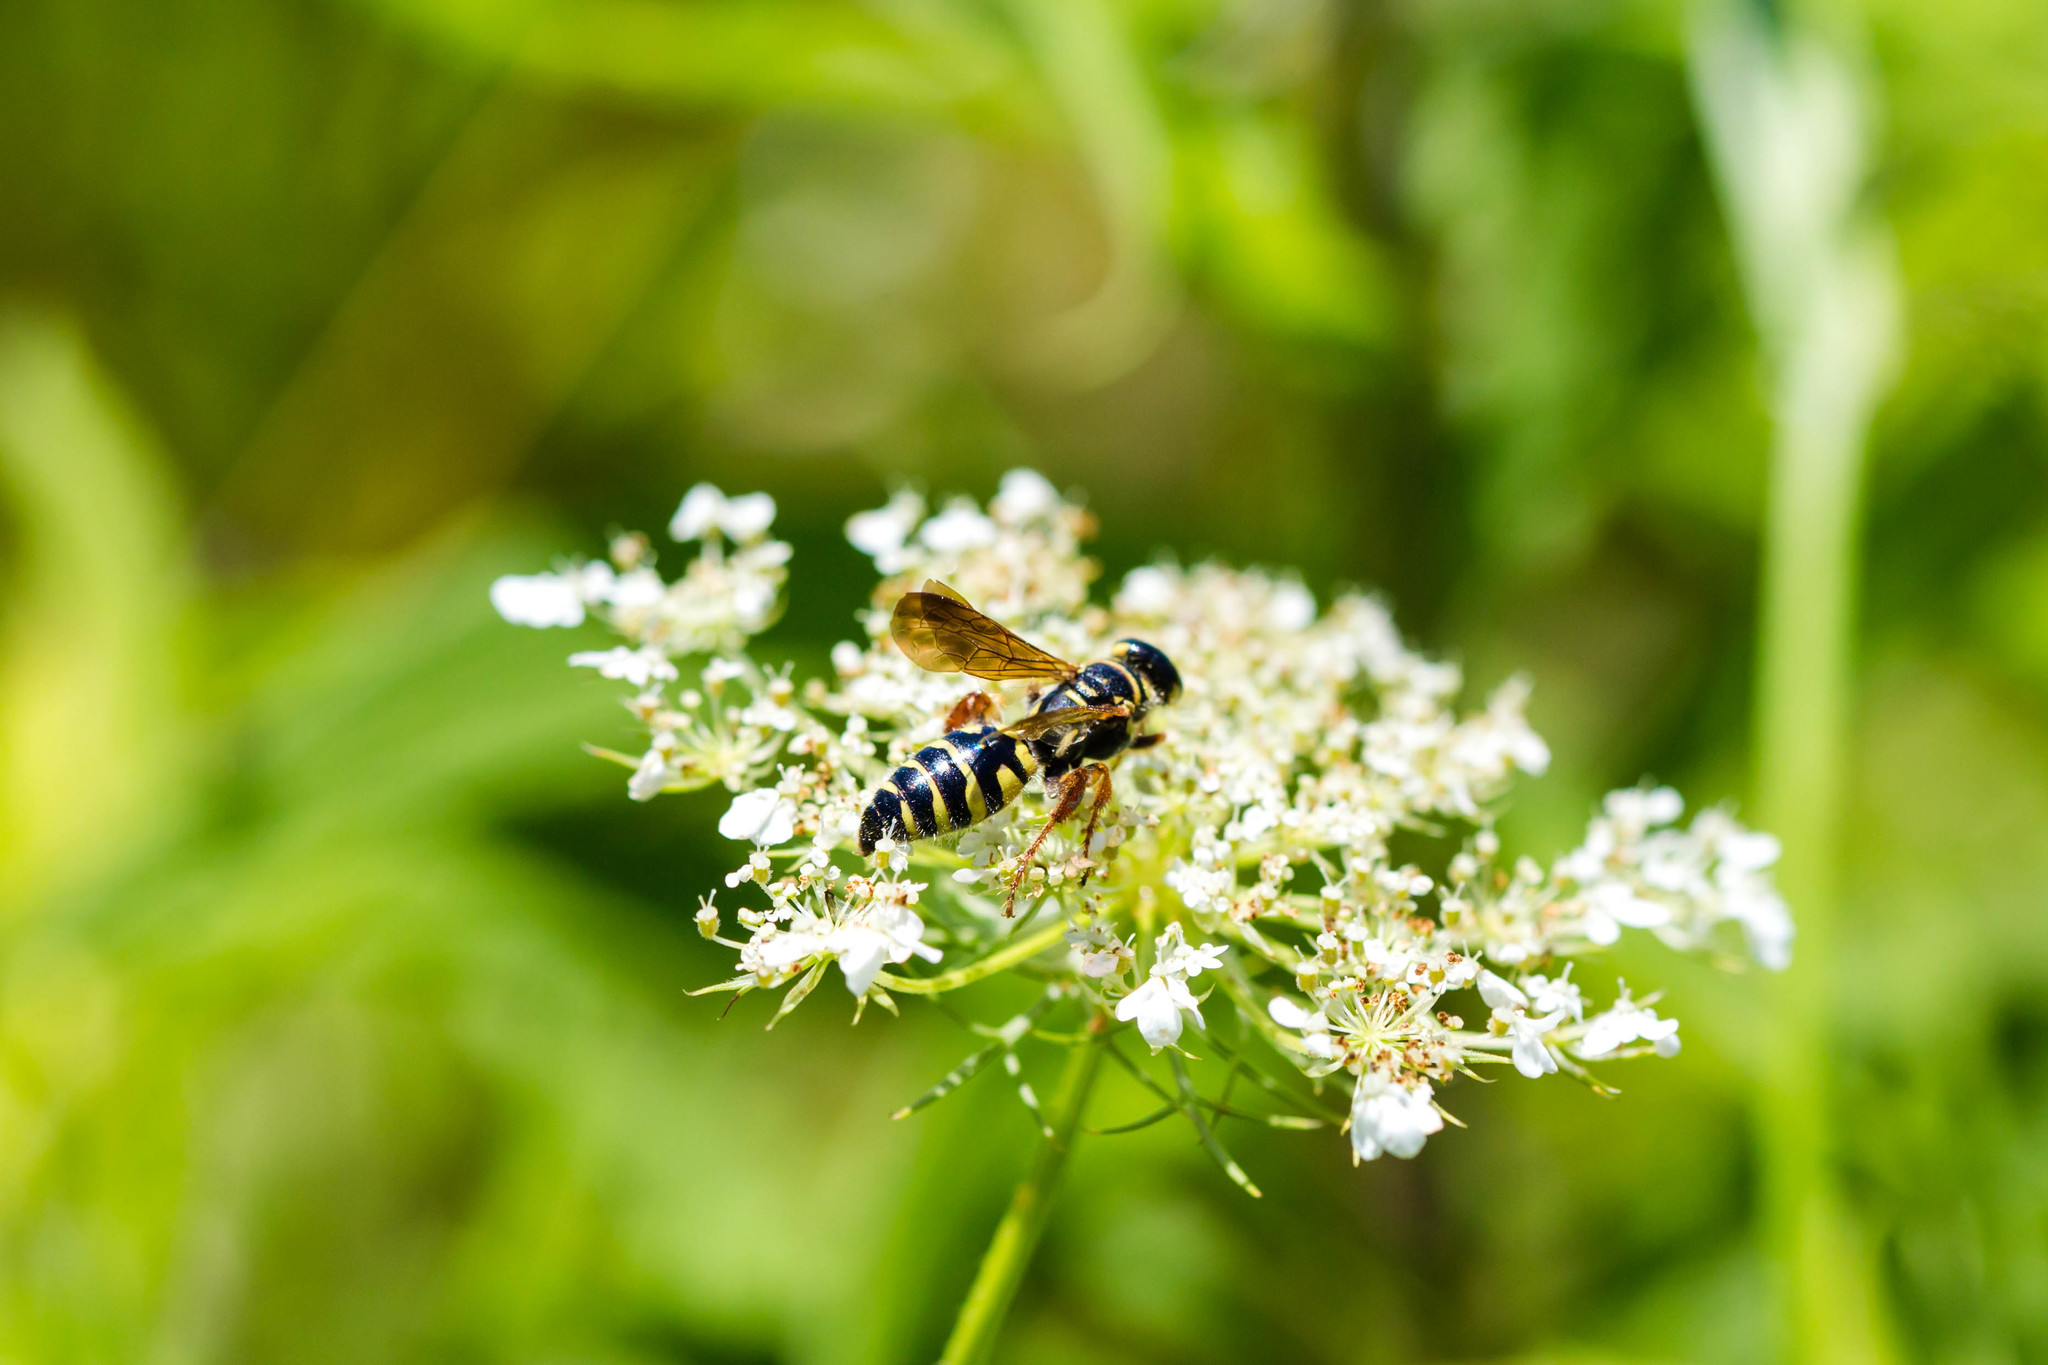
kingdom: Animalia
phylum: Arthropoda
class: Insecta
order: Hymenoptera
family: Tiphiidae
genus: Myzinum
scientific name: Myzinum quinquecinctum
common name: Five-banded thynnid wasp
